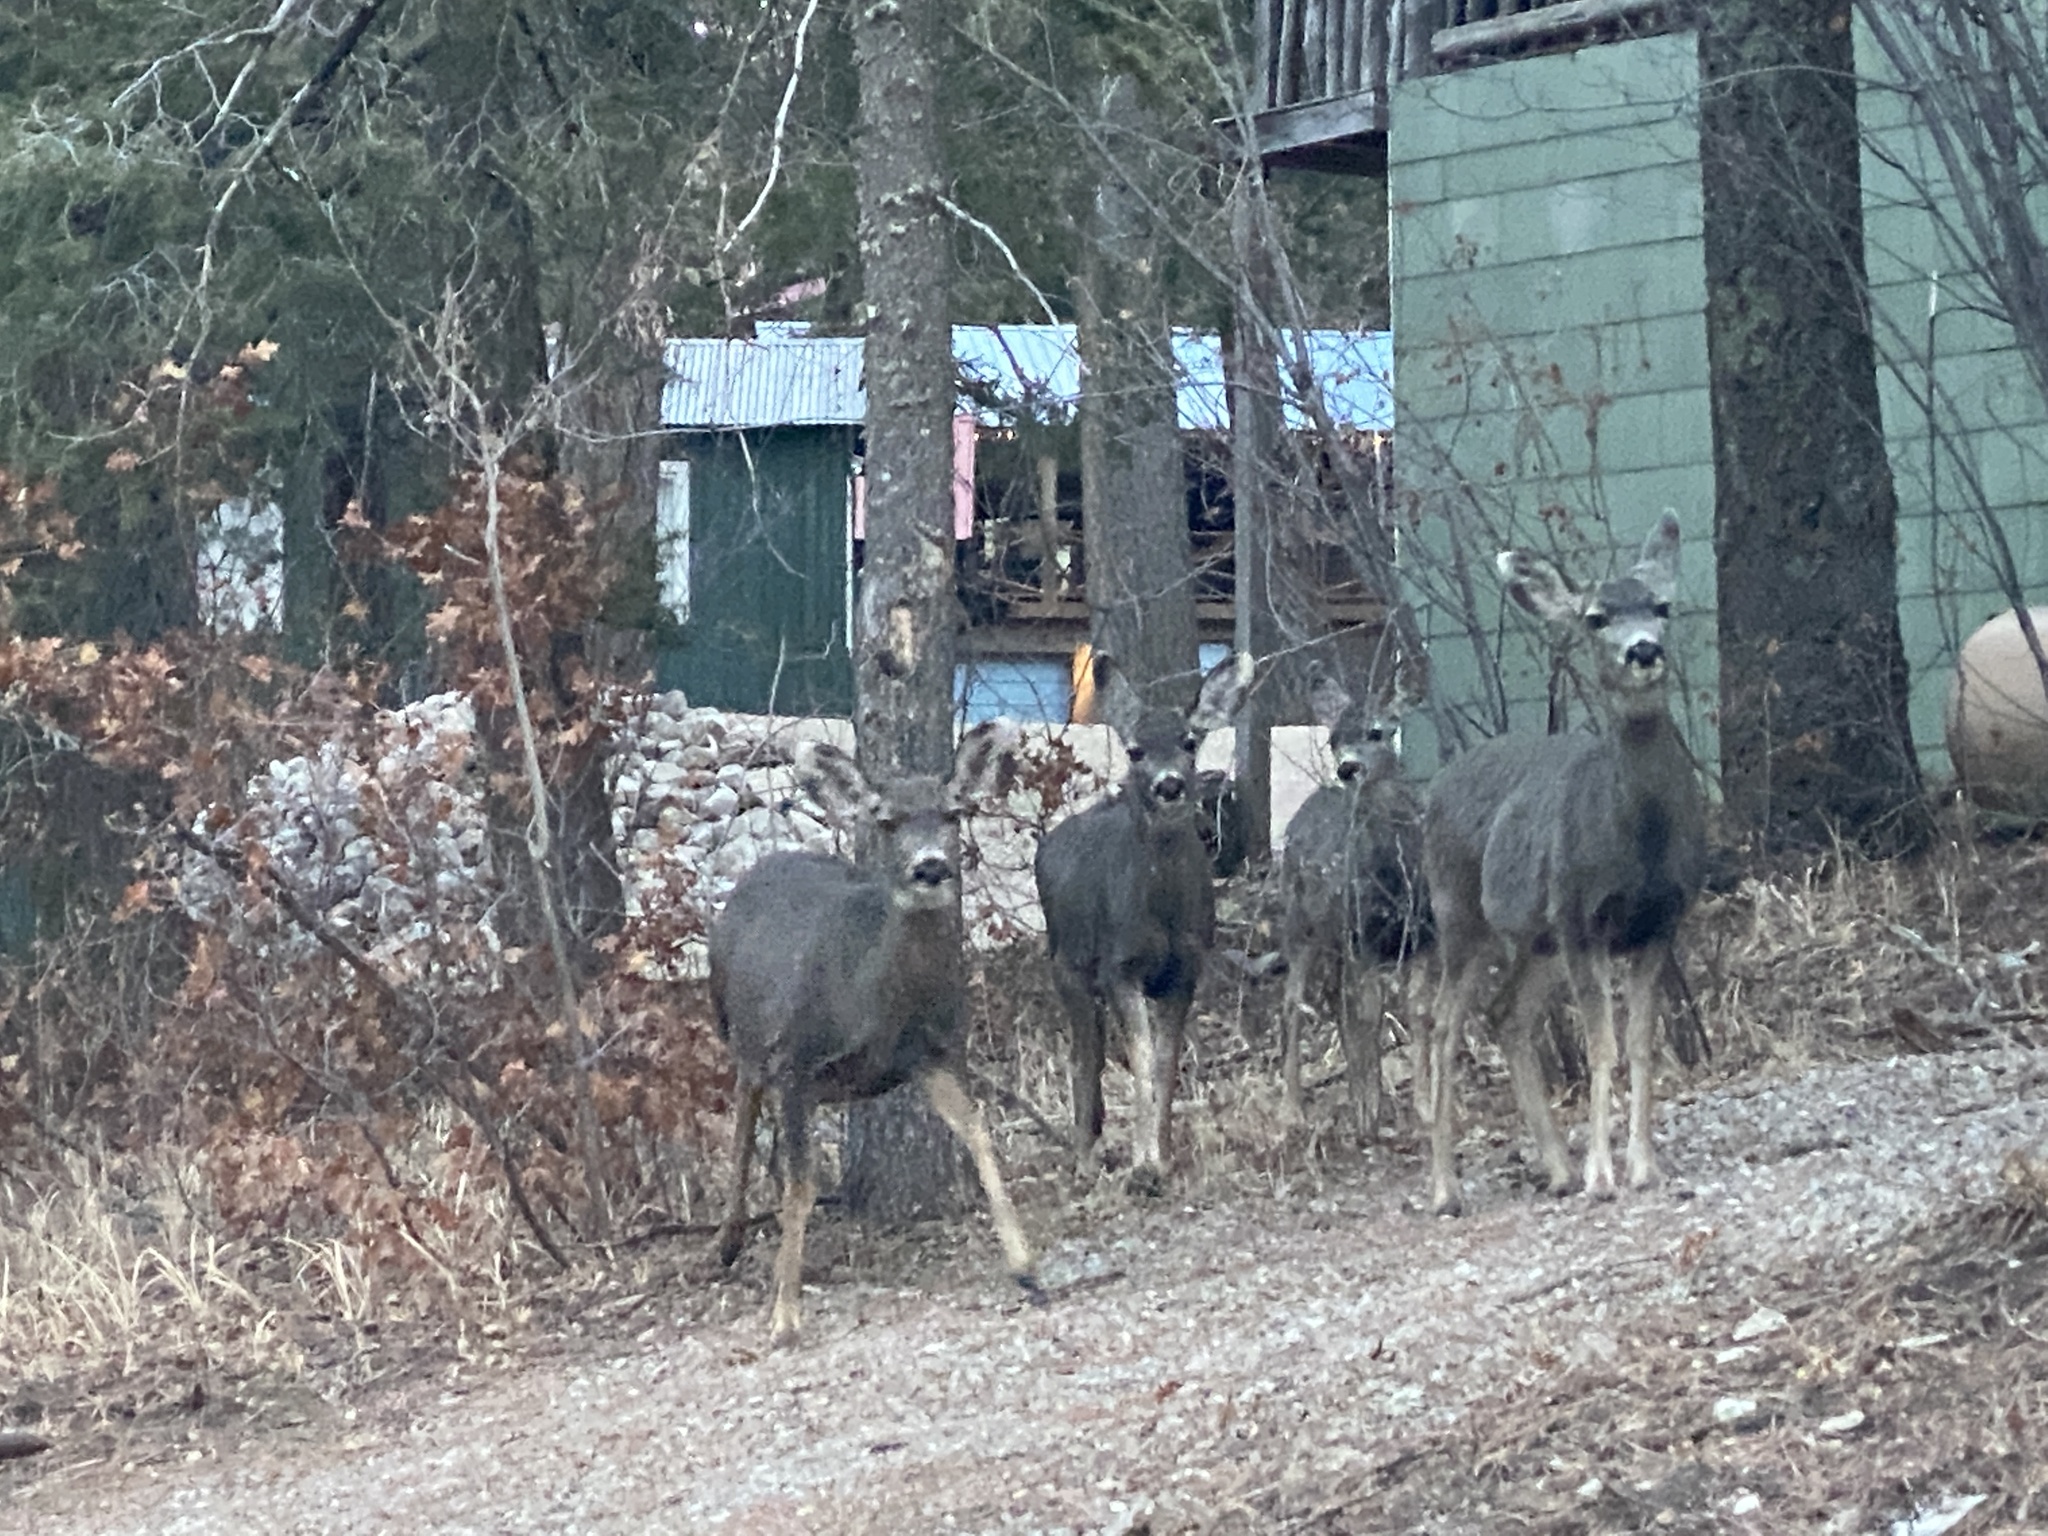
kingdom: Animalia
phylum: Chordata
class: Mammalia
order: Artiodactyla
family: Cervidae
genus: Odocoileus
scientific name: Odocoileus hemionus
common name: Mule deer
